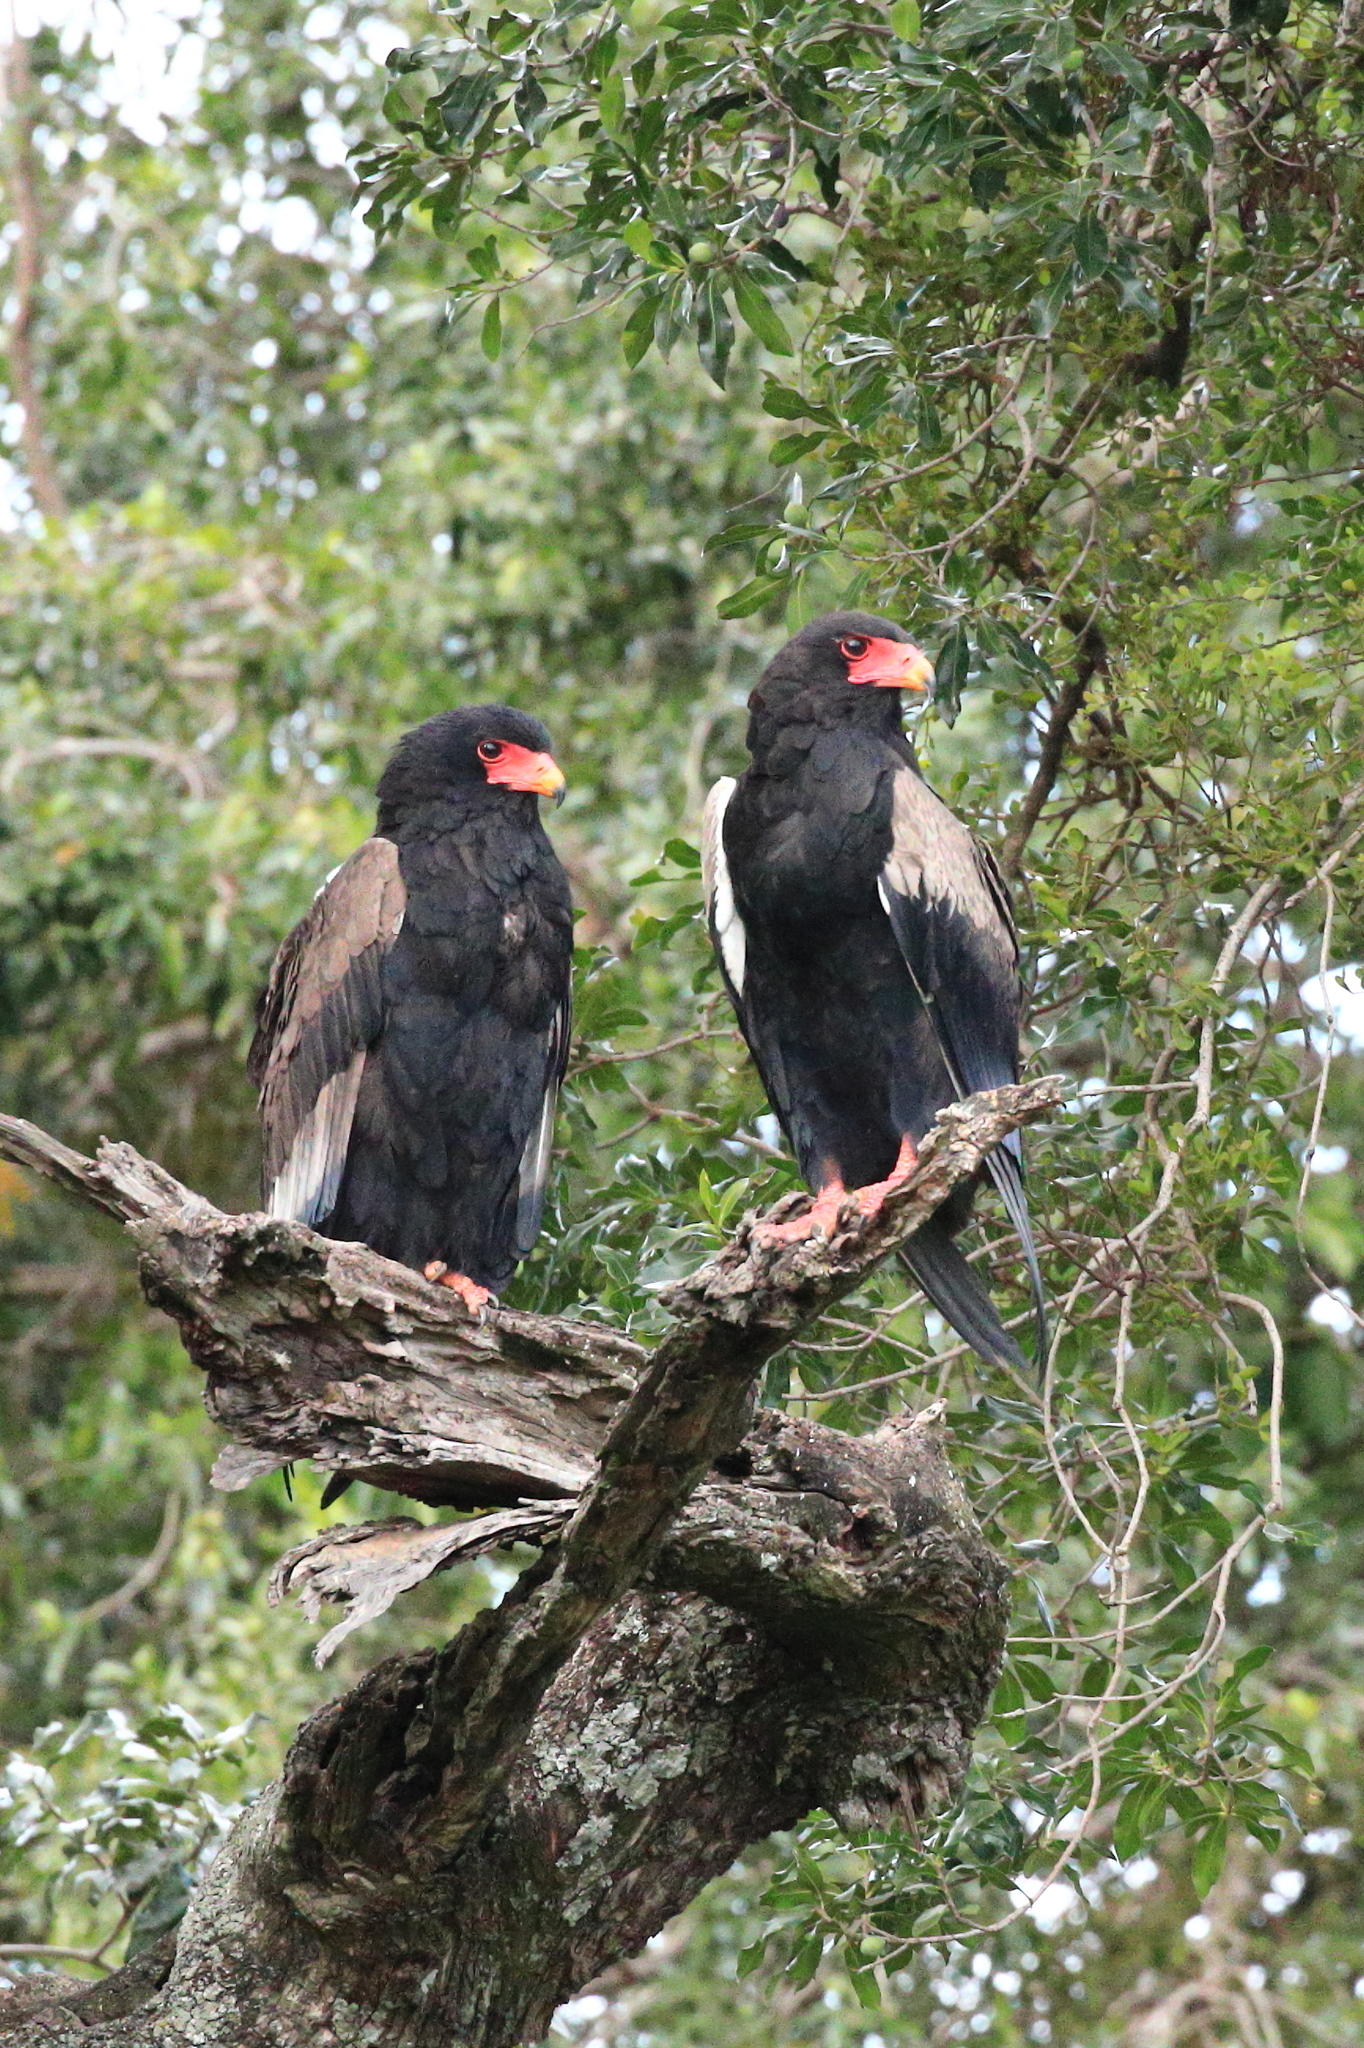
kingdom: Animalia
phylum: Chordata
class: Aves
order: Accipitriformes
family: Accipitridae
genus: Terathopius
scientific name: Terathopius ecaudatus
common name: Bateleur
